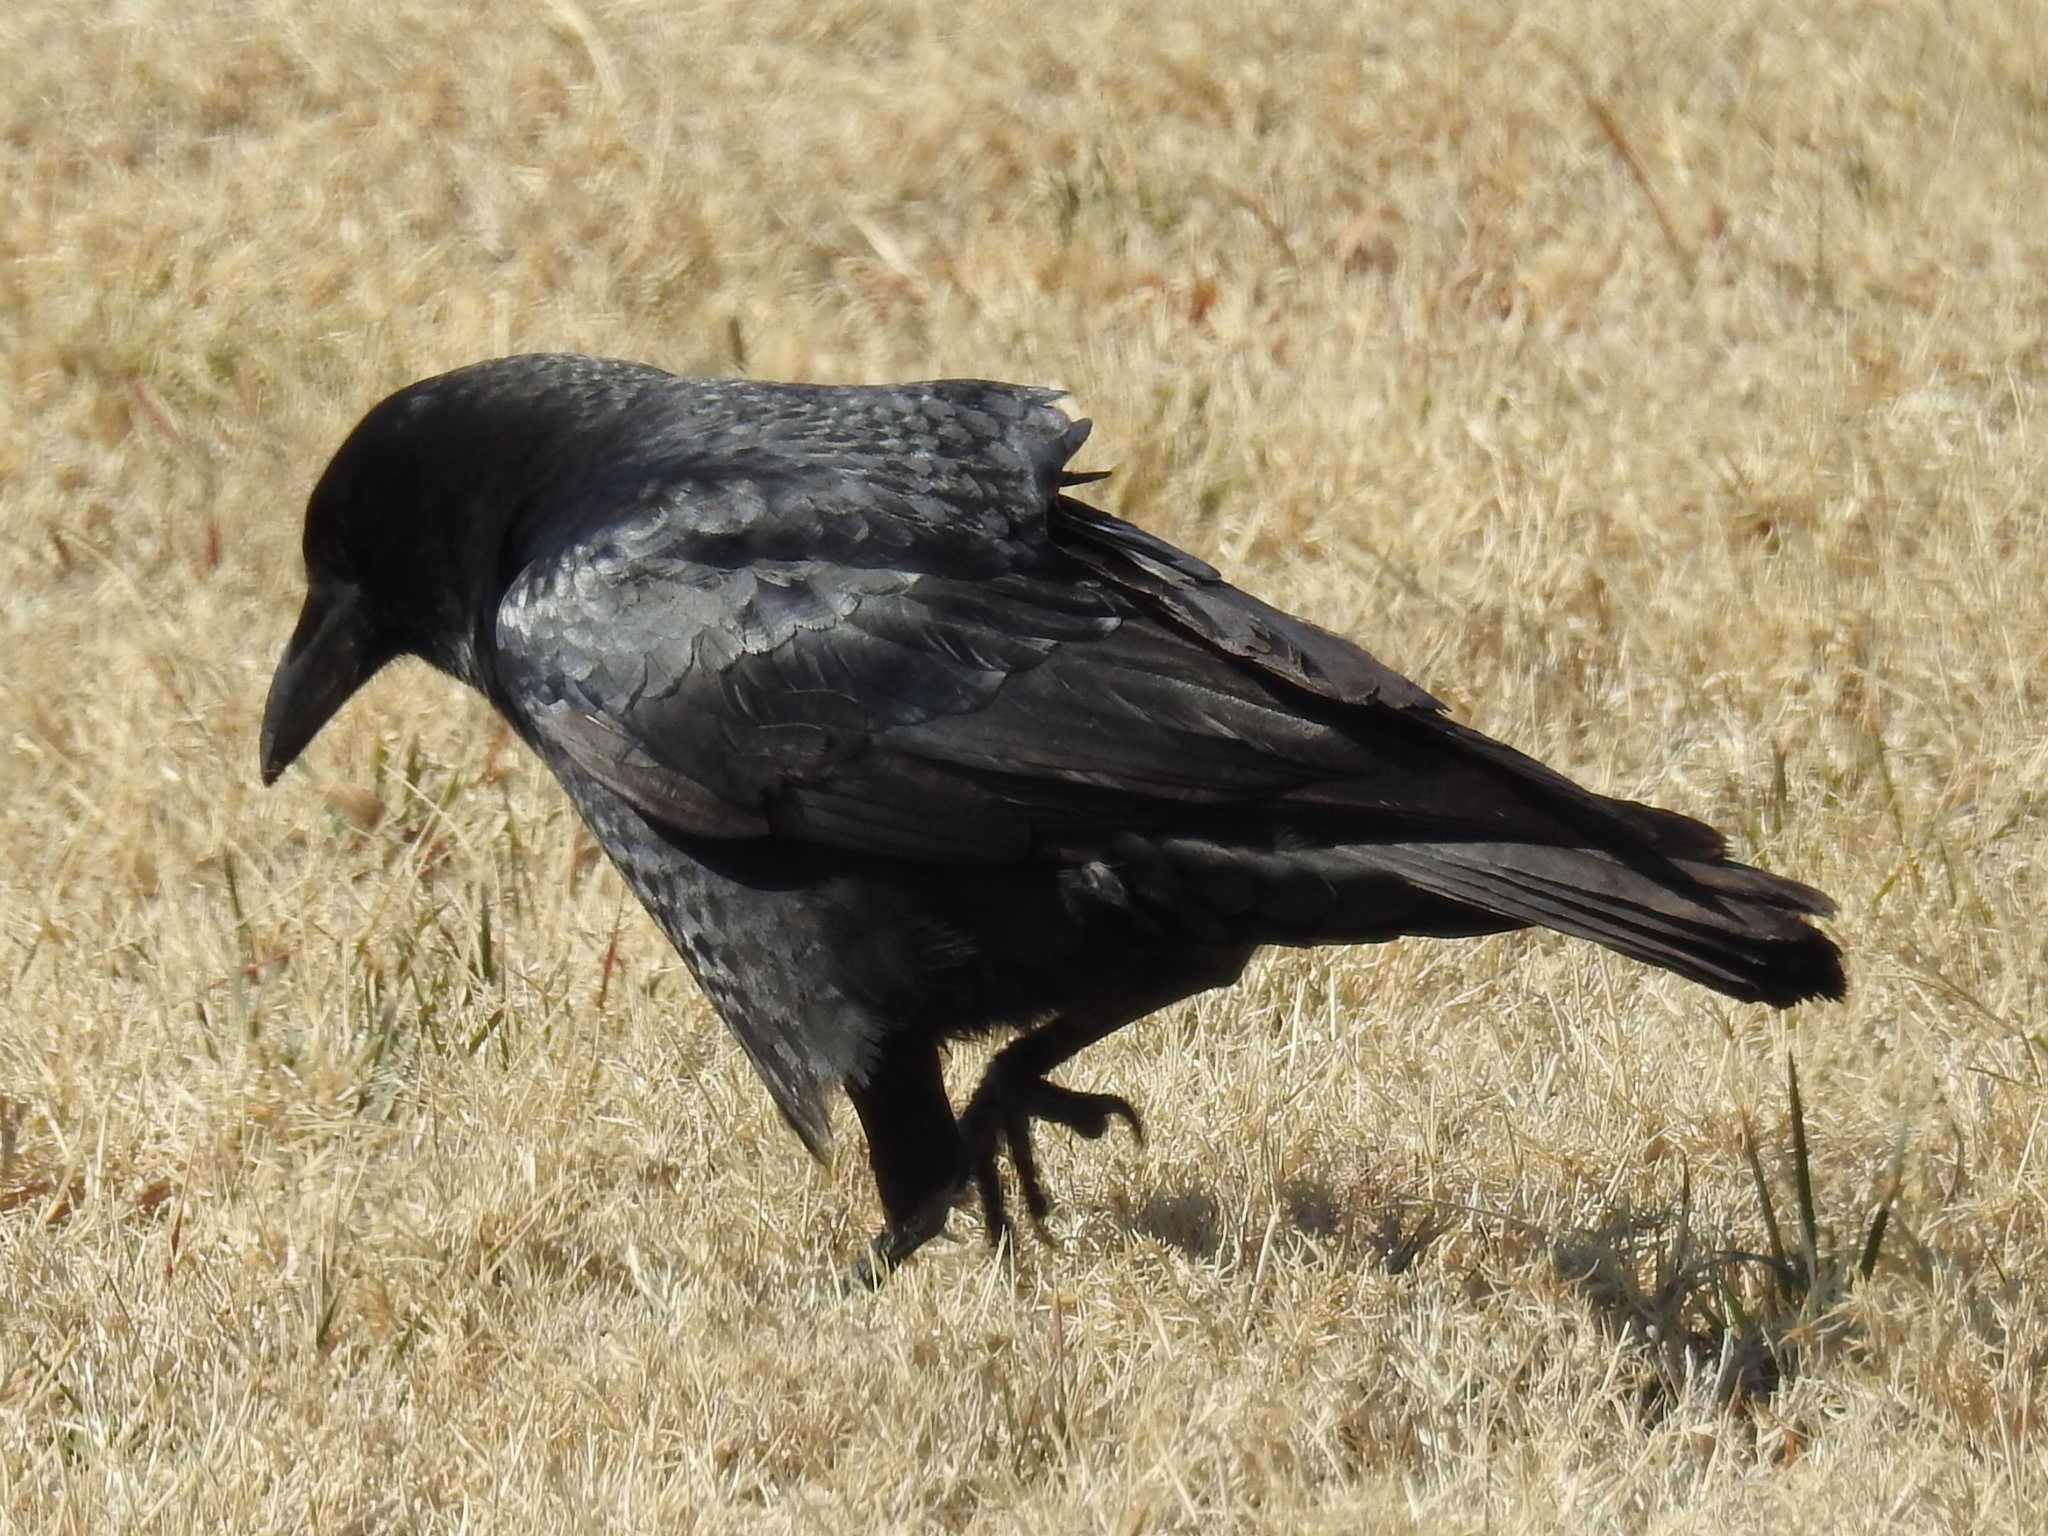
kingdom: Animalia
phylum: Chordata
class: Aves
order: Passeriformes
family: Corvidae
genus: Corvus
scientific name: Corvus brachyrhynchos
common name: American crow
